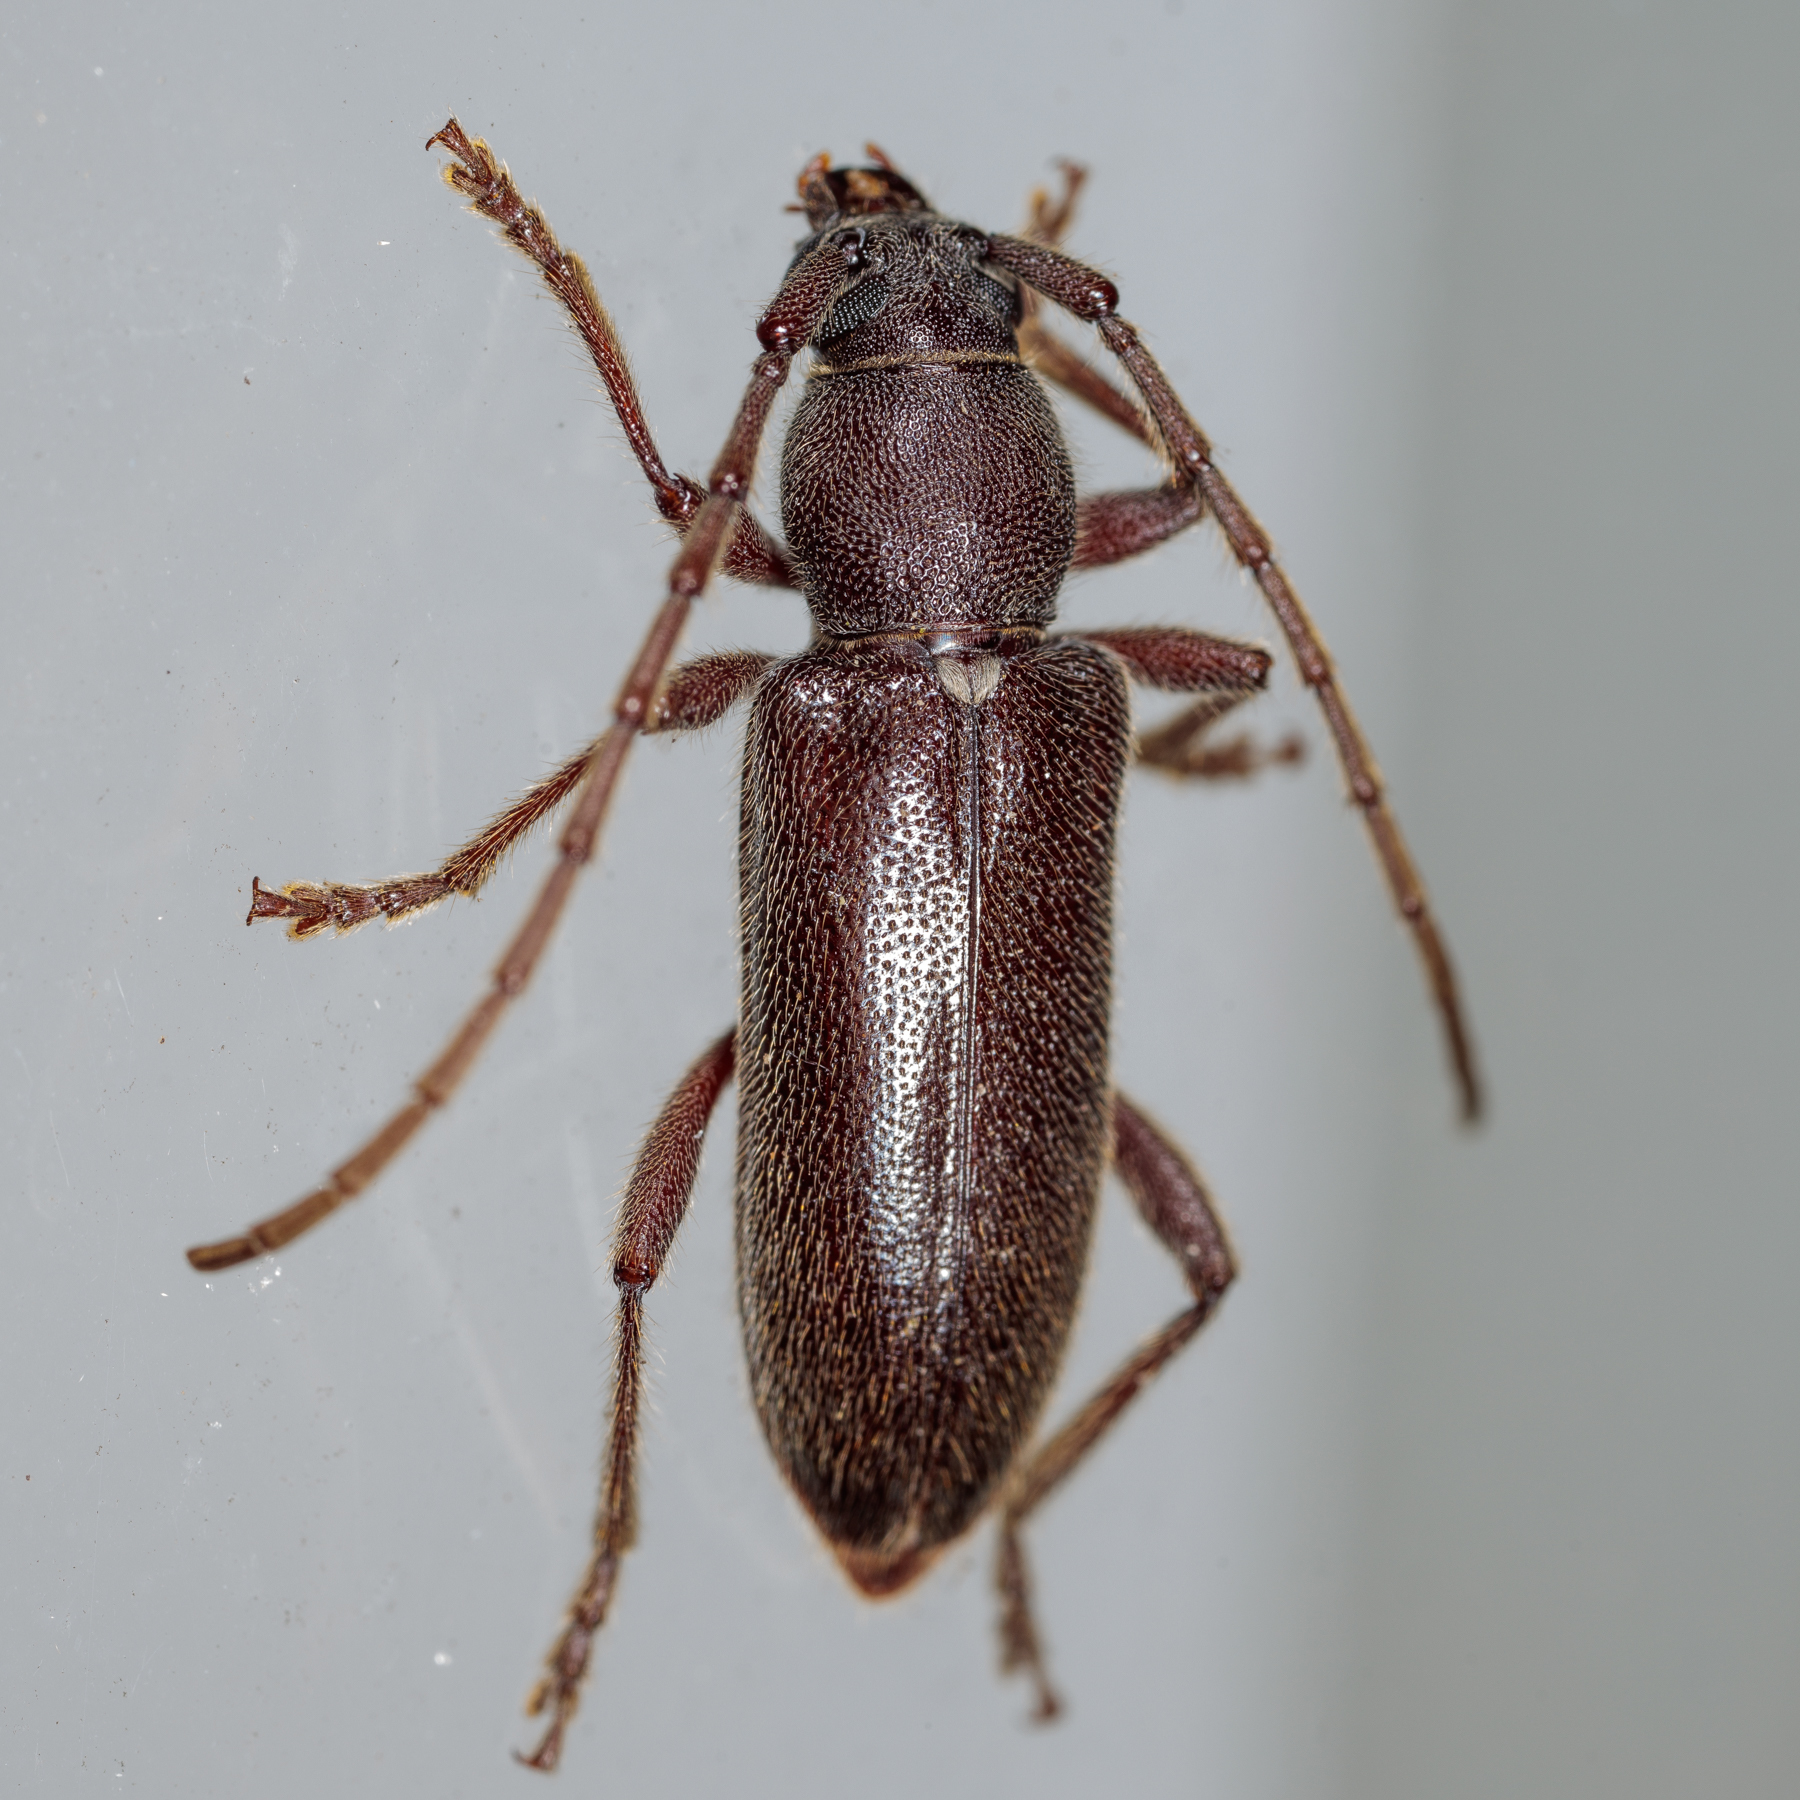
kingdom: Animalia
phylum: Arthropoda
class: Insecta
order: Coleoptera
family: Cerambycidae
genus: Anelaphus
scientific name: Anelaphus moestus
